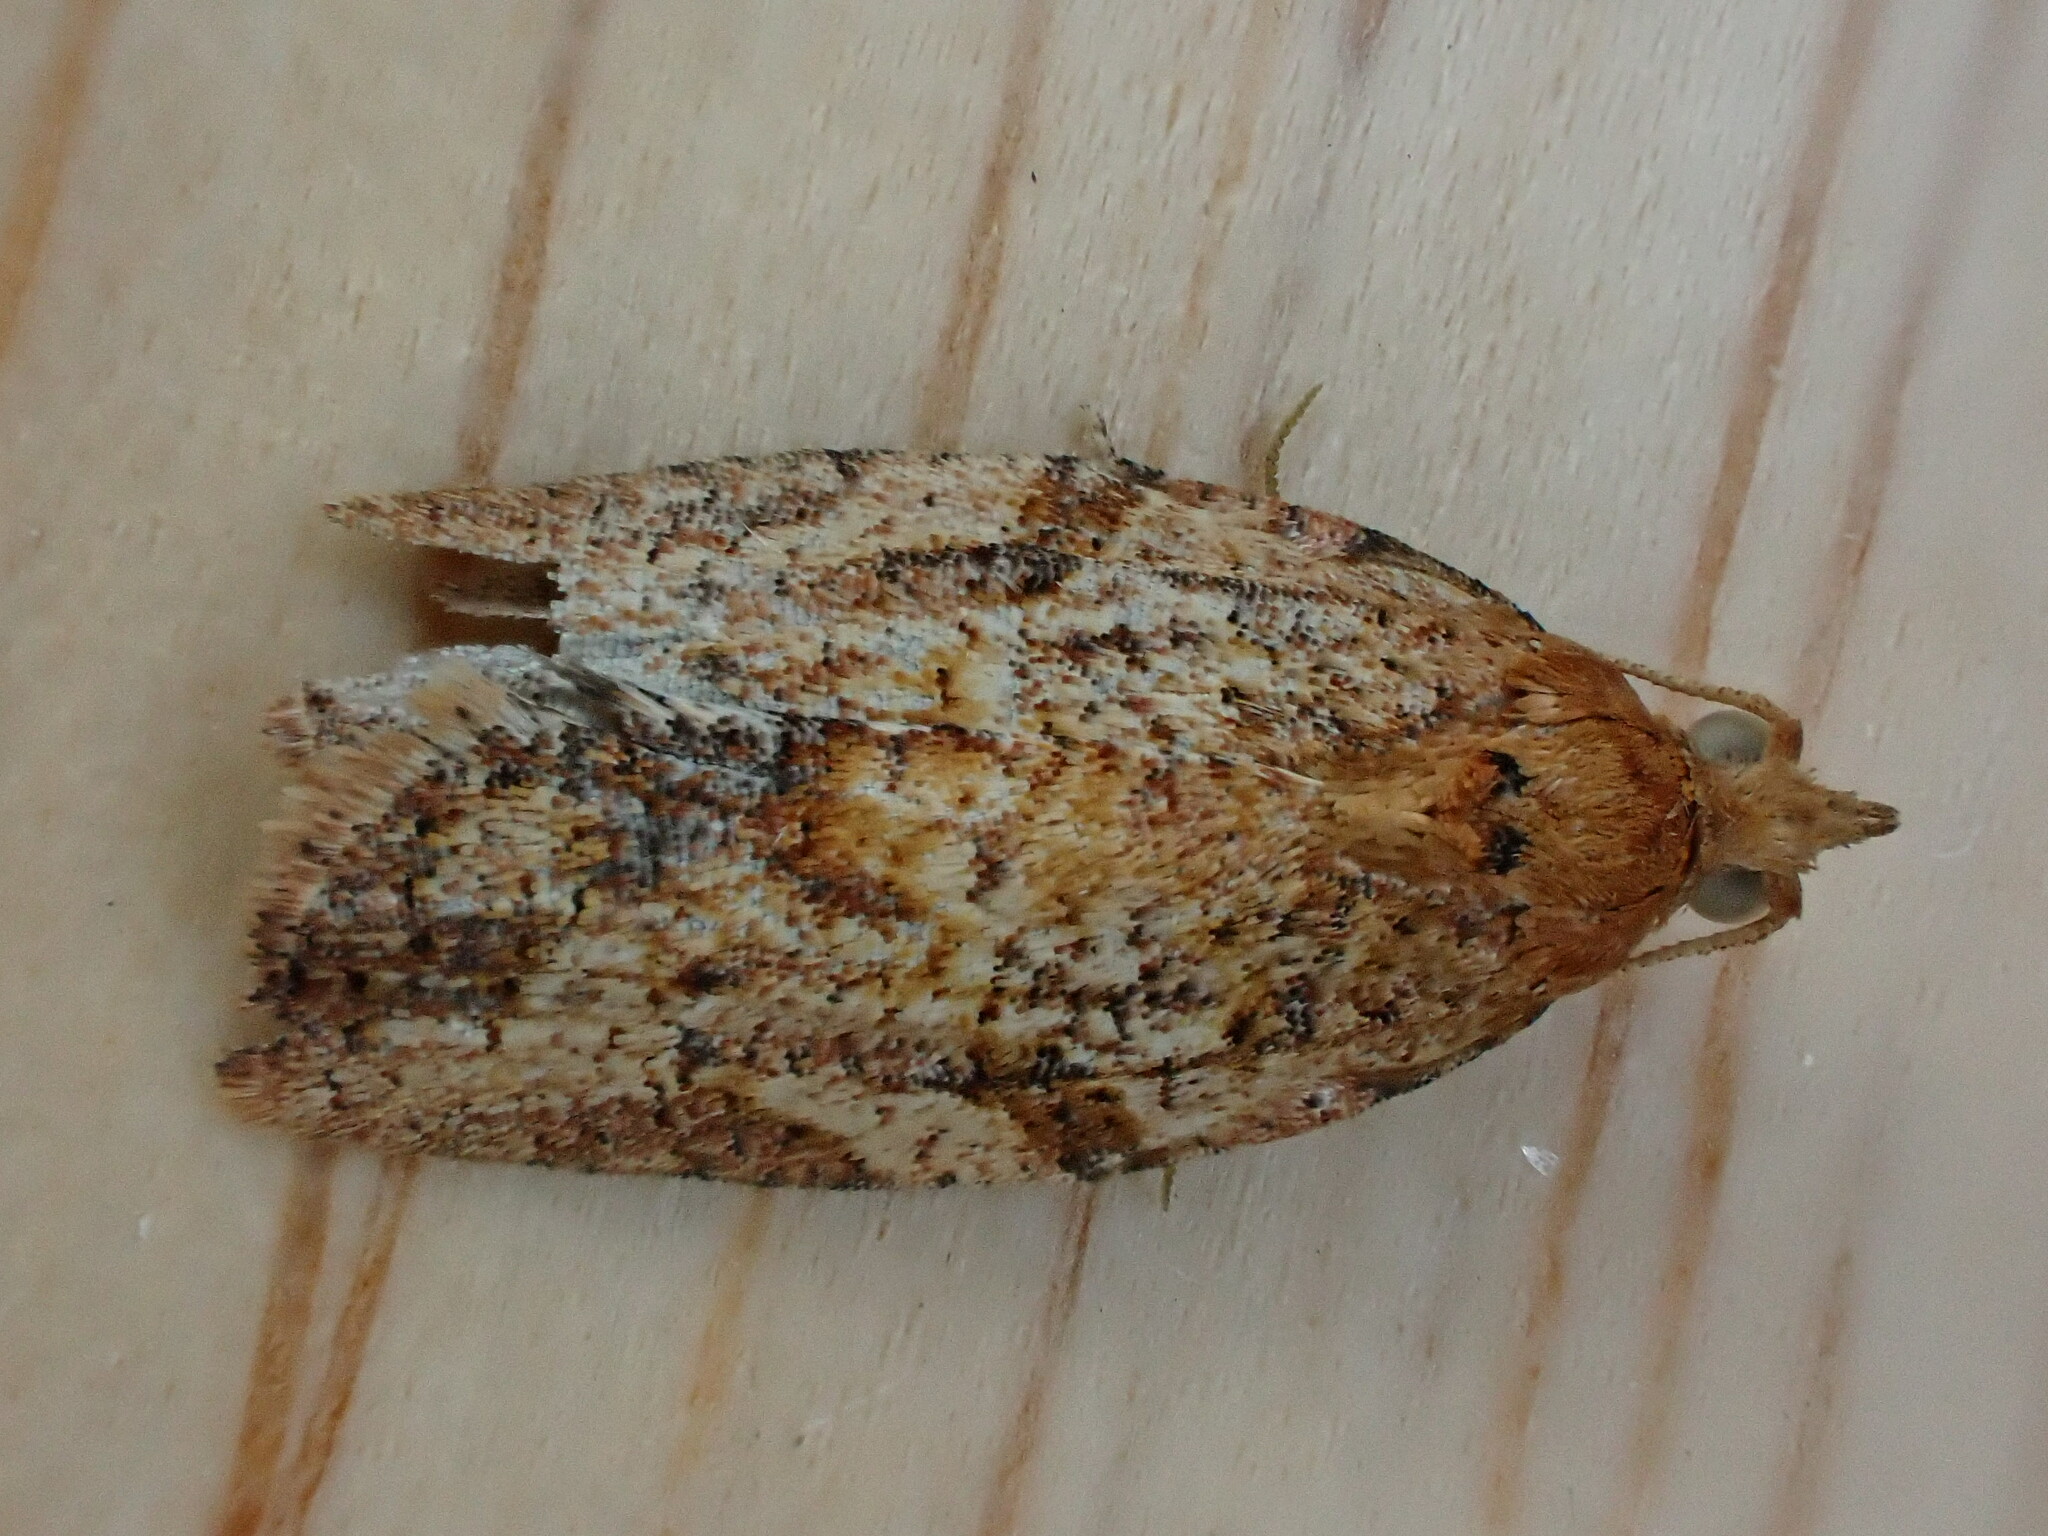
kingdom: Animalia
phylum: Arthropoda
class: Insecta
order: Lepidoptera
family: Tortricidae
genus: Epiphyas
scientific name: Epiphyas postvittana
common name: Light brown apple moth
